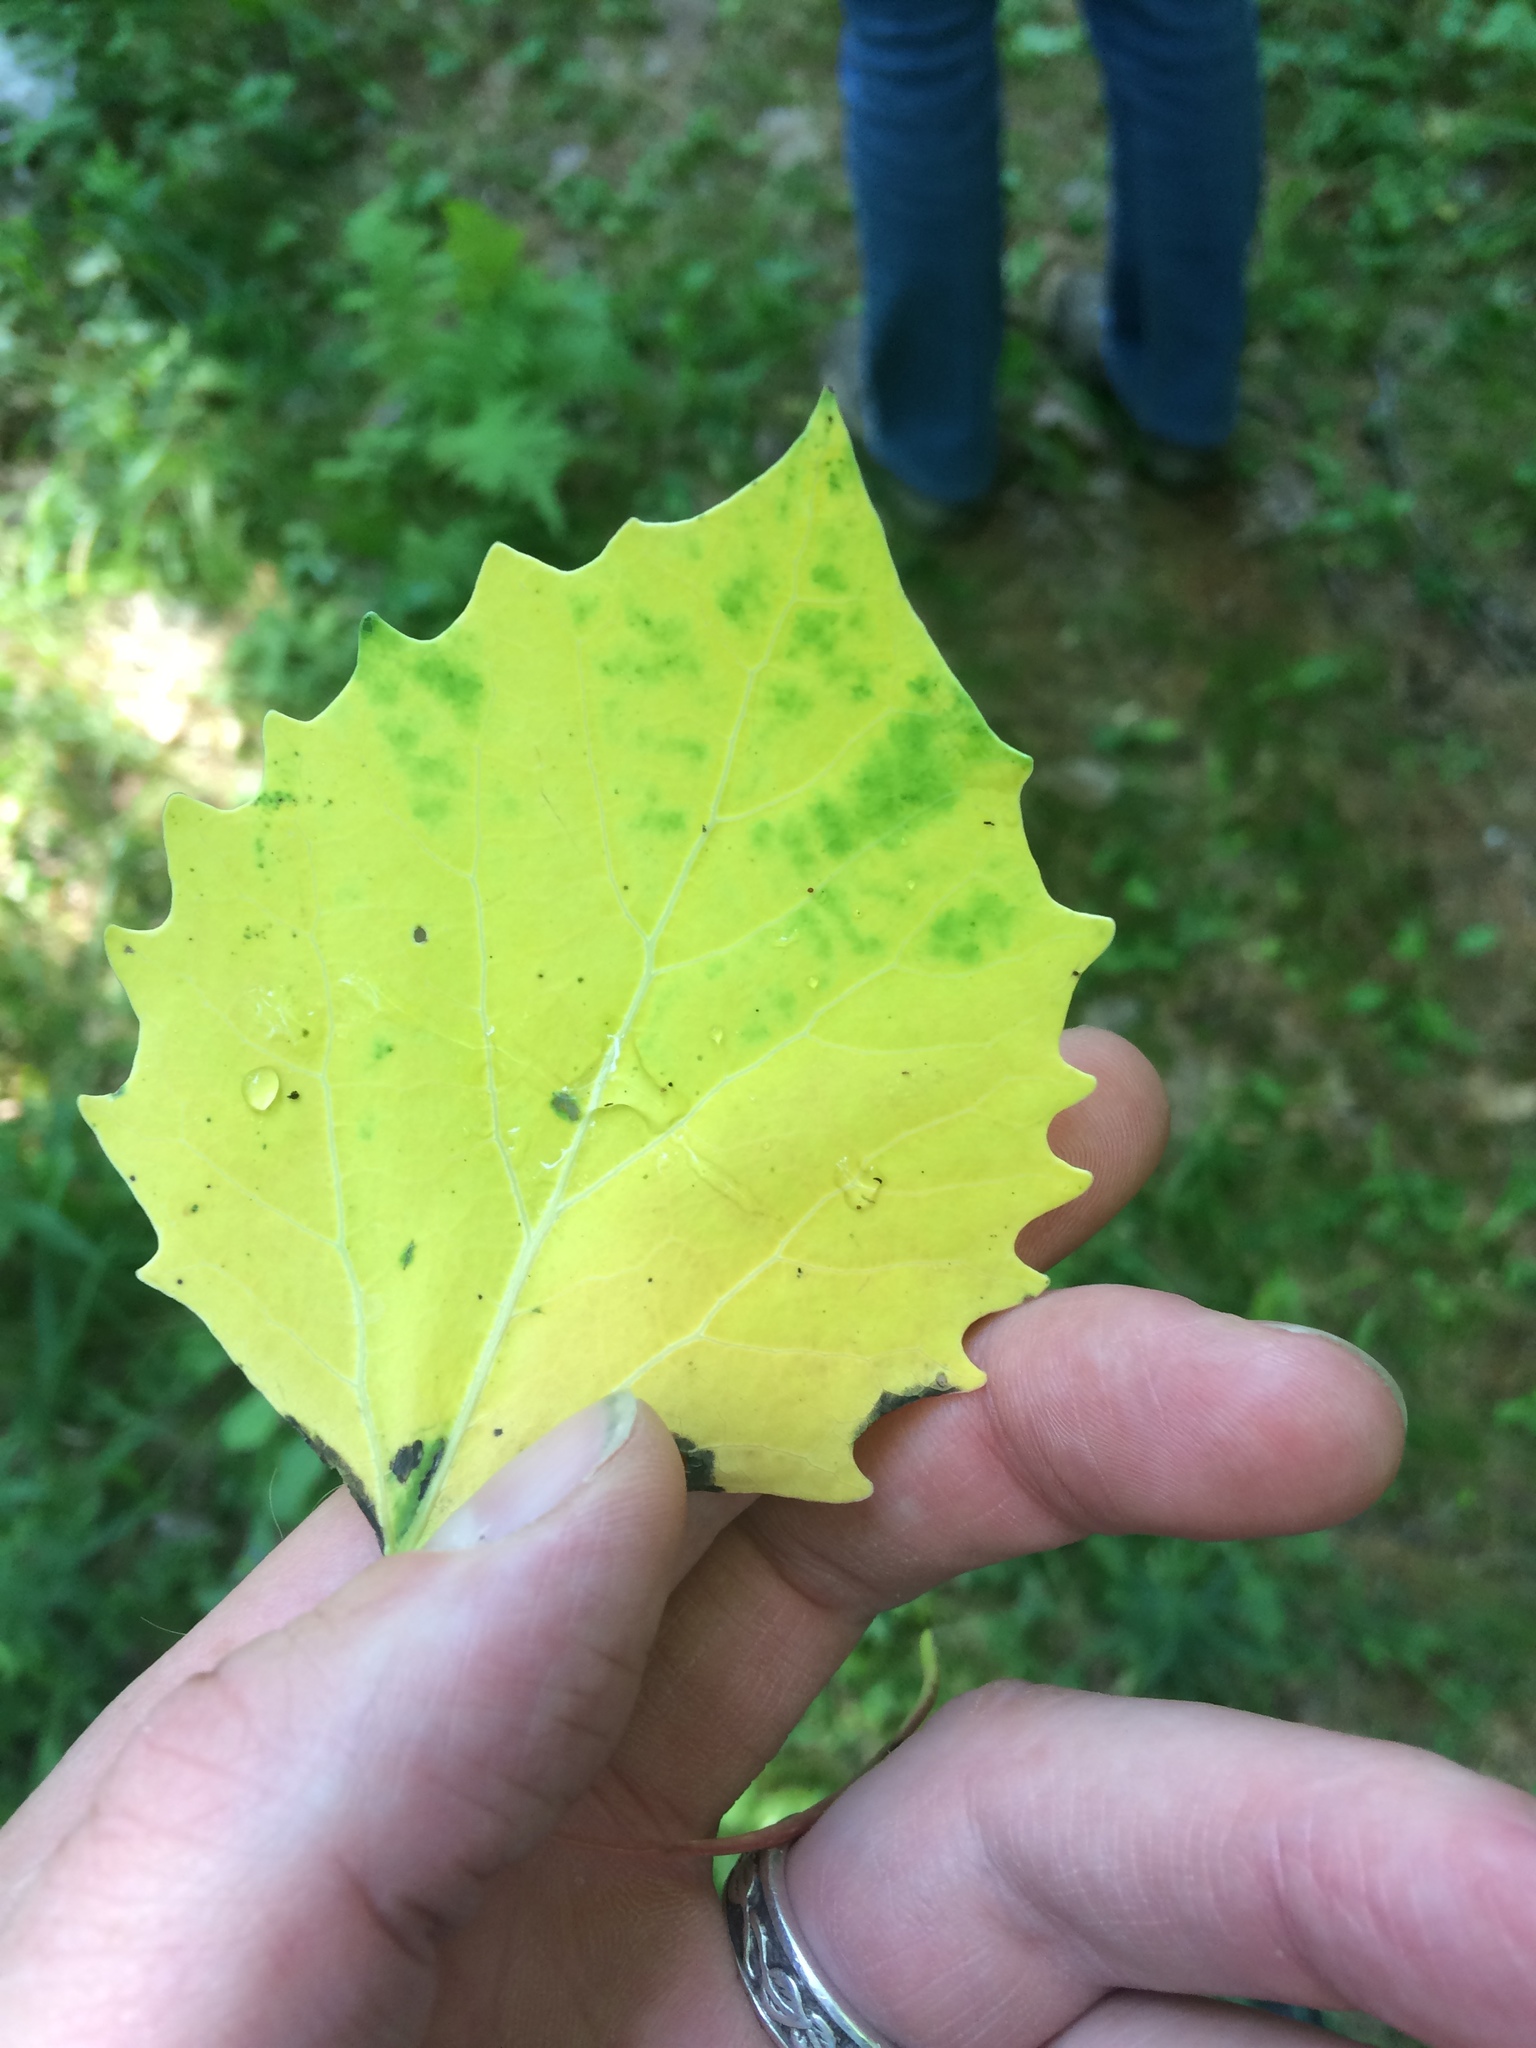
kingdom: Plantae
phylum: Tracheophyta
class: Magnoliopsida
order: Malpighiales
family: Salicaceae
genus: Populus
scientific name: Populus grandidentata
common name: Bigtooth aspen
